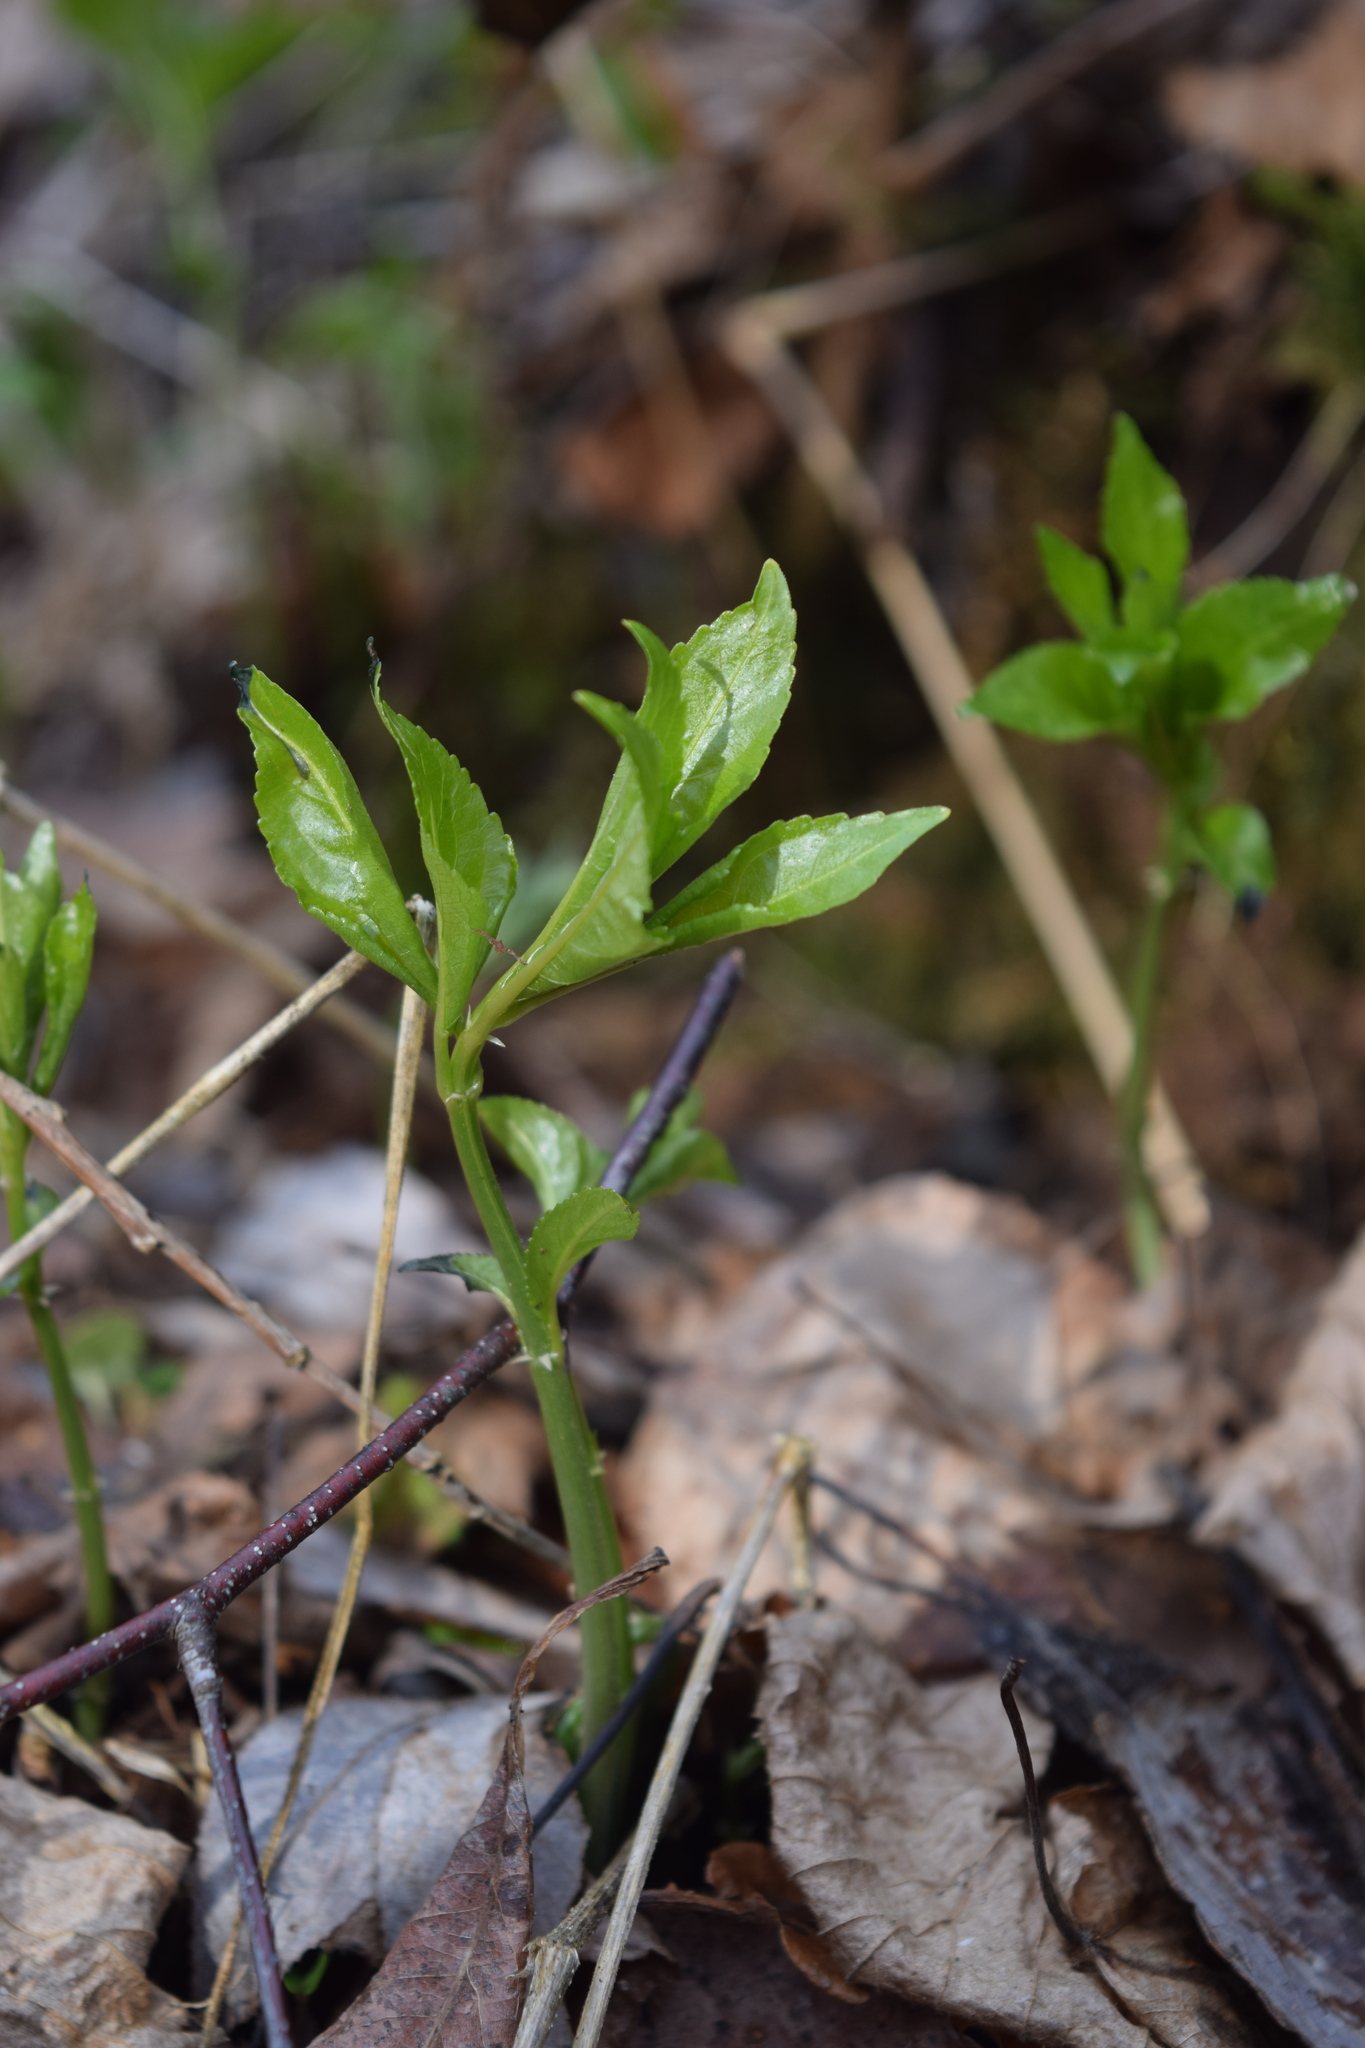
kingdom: Plantae
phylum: Tracheophyta
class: Magnoliopsida
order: Malpighiales
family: Euphorbiaceae
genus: Mercurialis
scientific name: Mercurialis perennis
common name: Dog mercury
